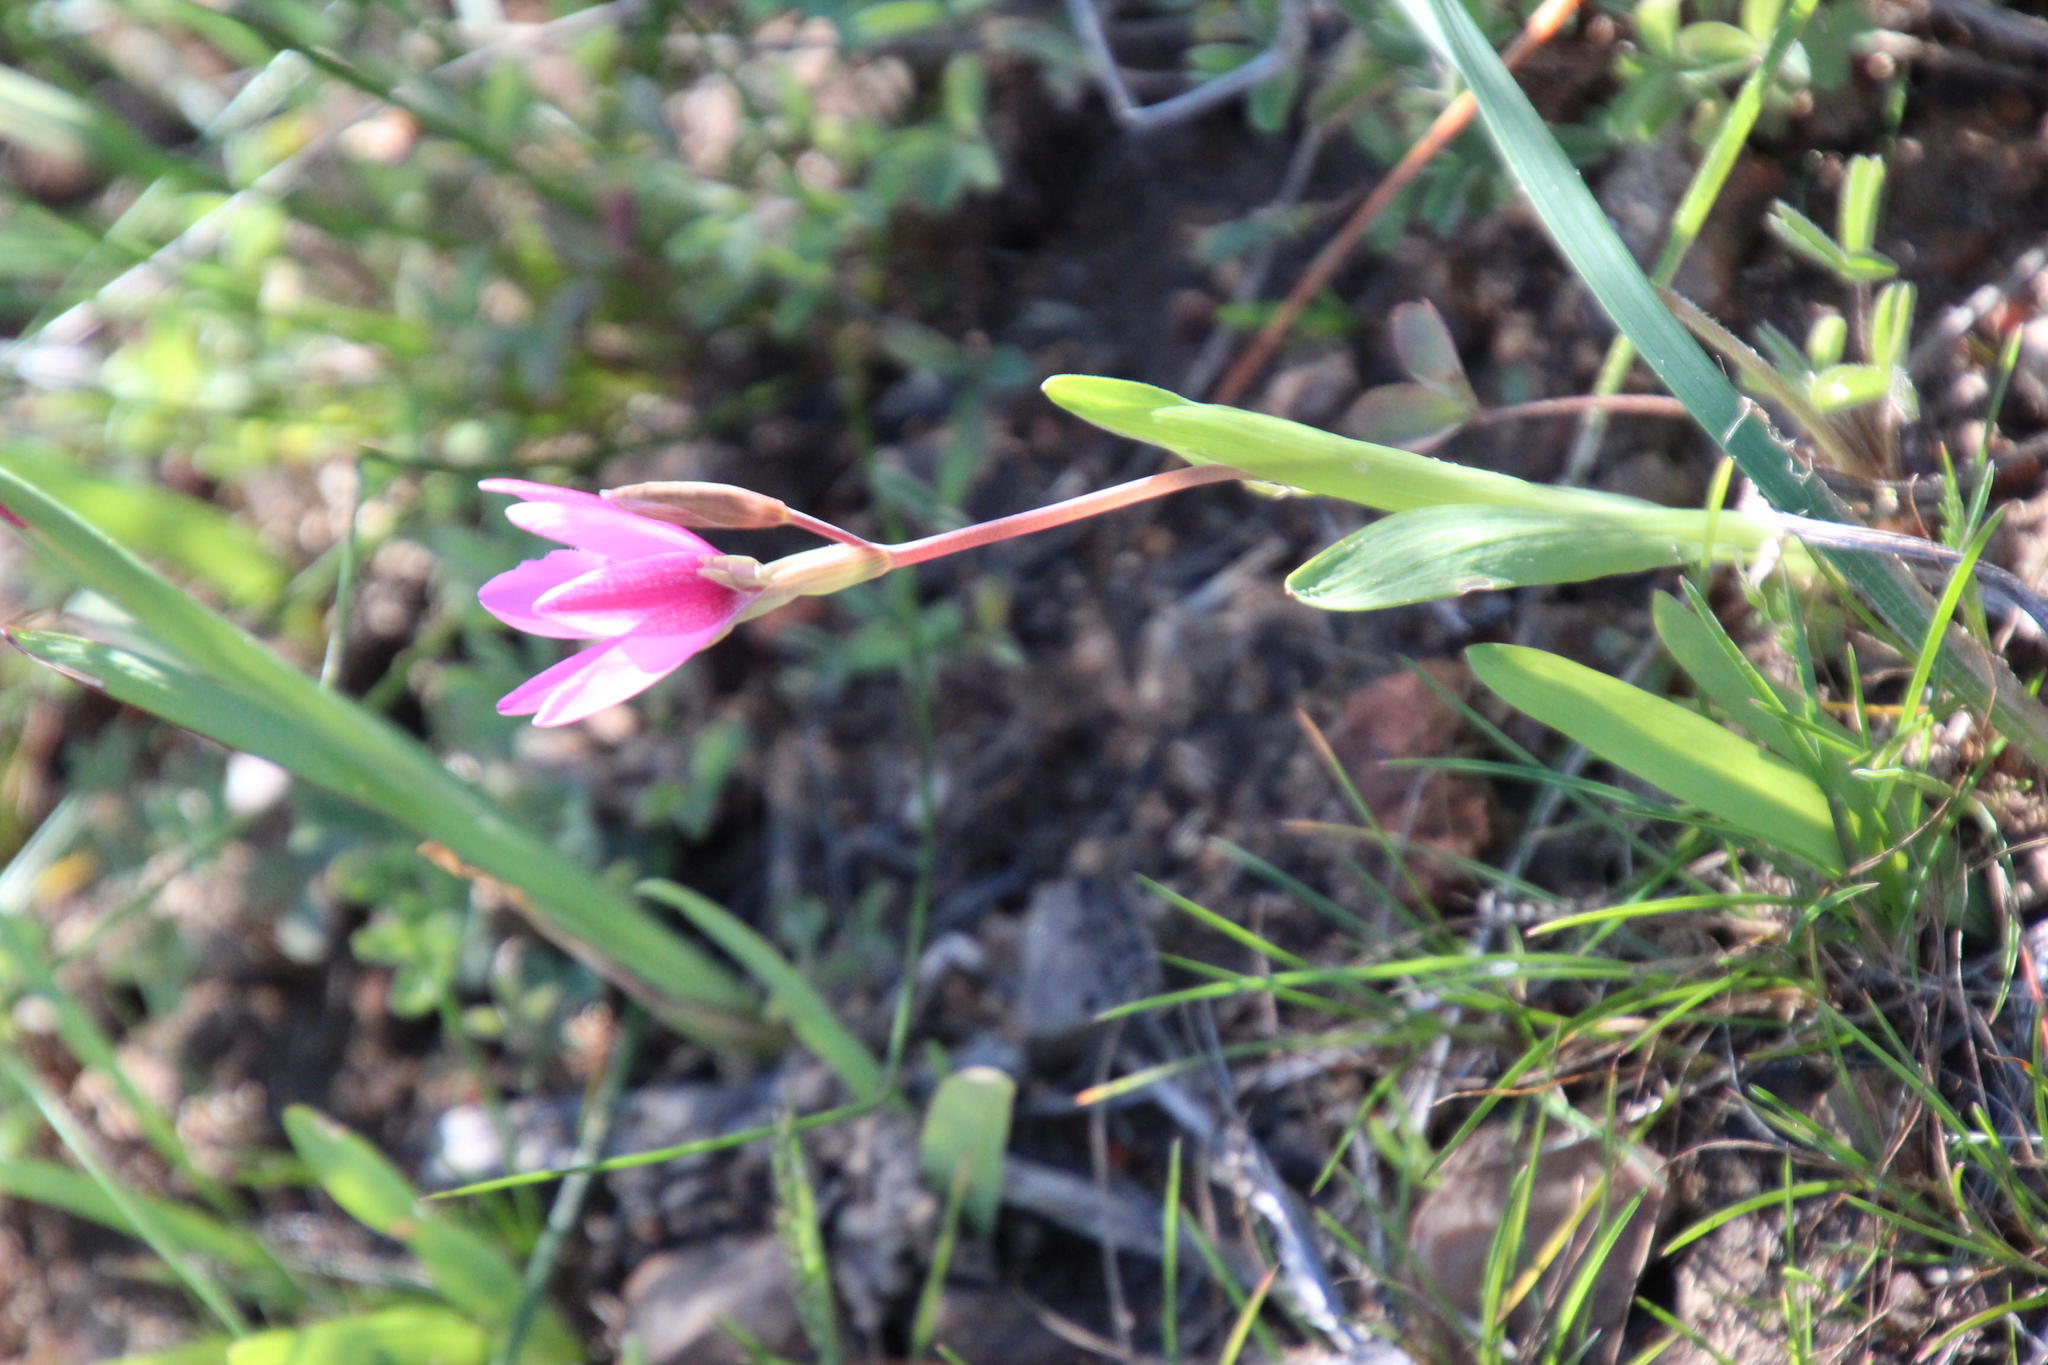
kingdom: Plantae
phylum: Tracheophyta
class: Liliopsida
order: Asparagales
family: Iridaceae
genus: Hesperantha
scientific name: Hesperantha pauciflora
